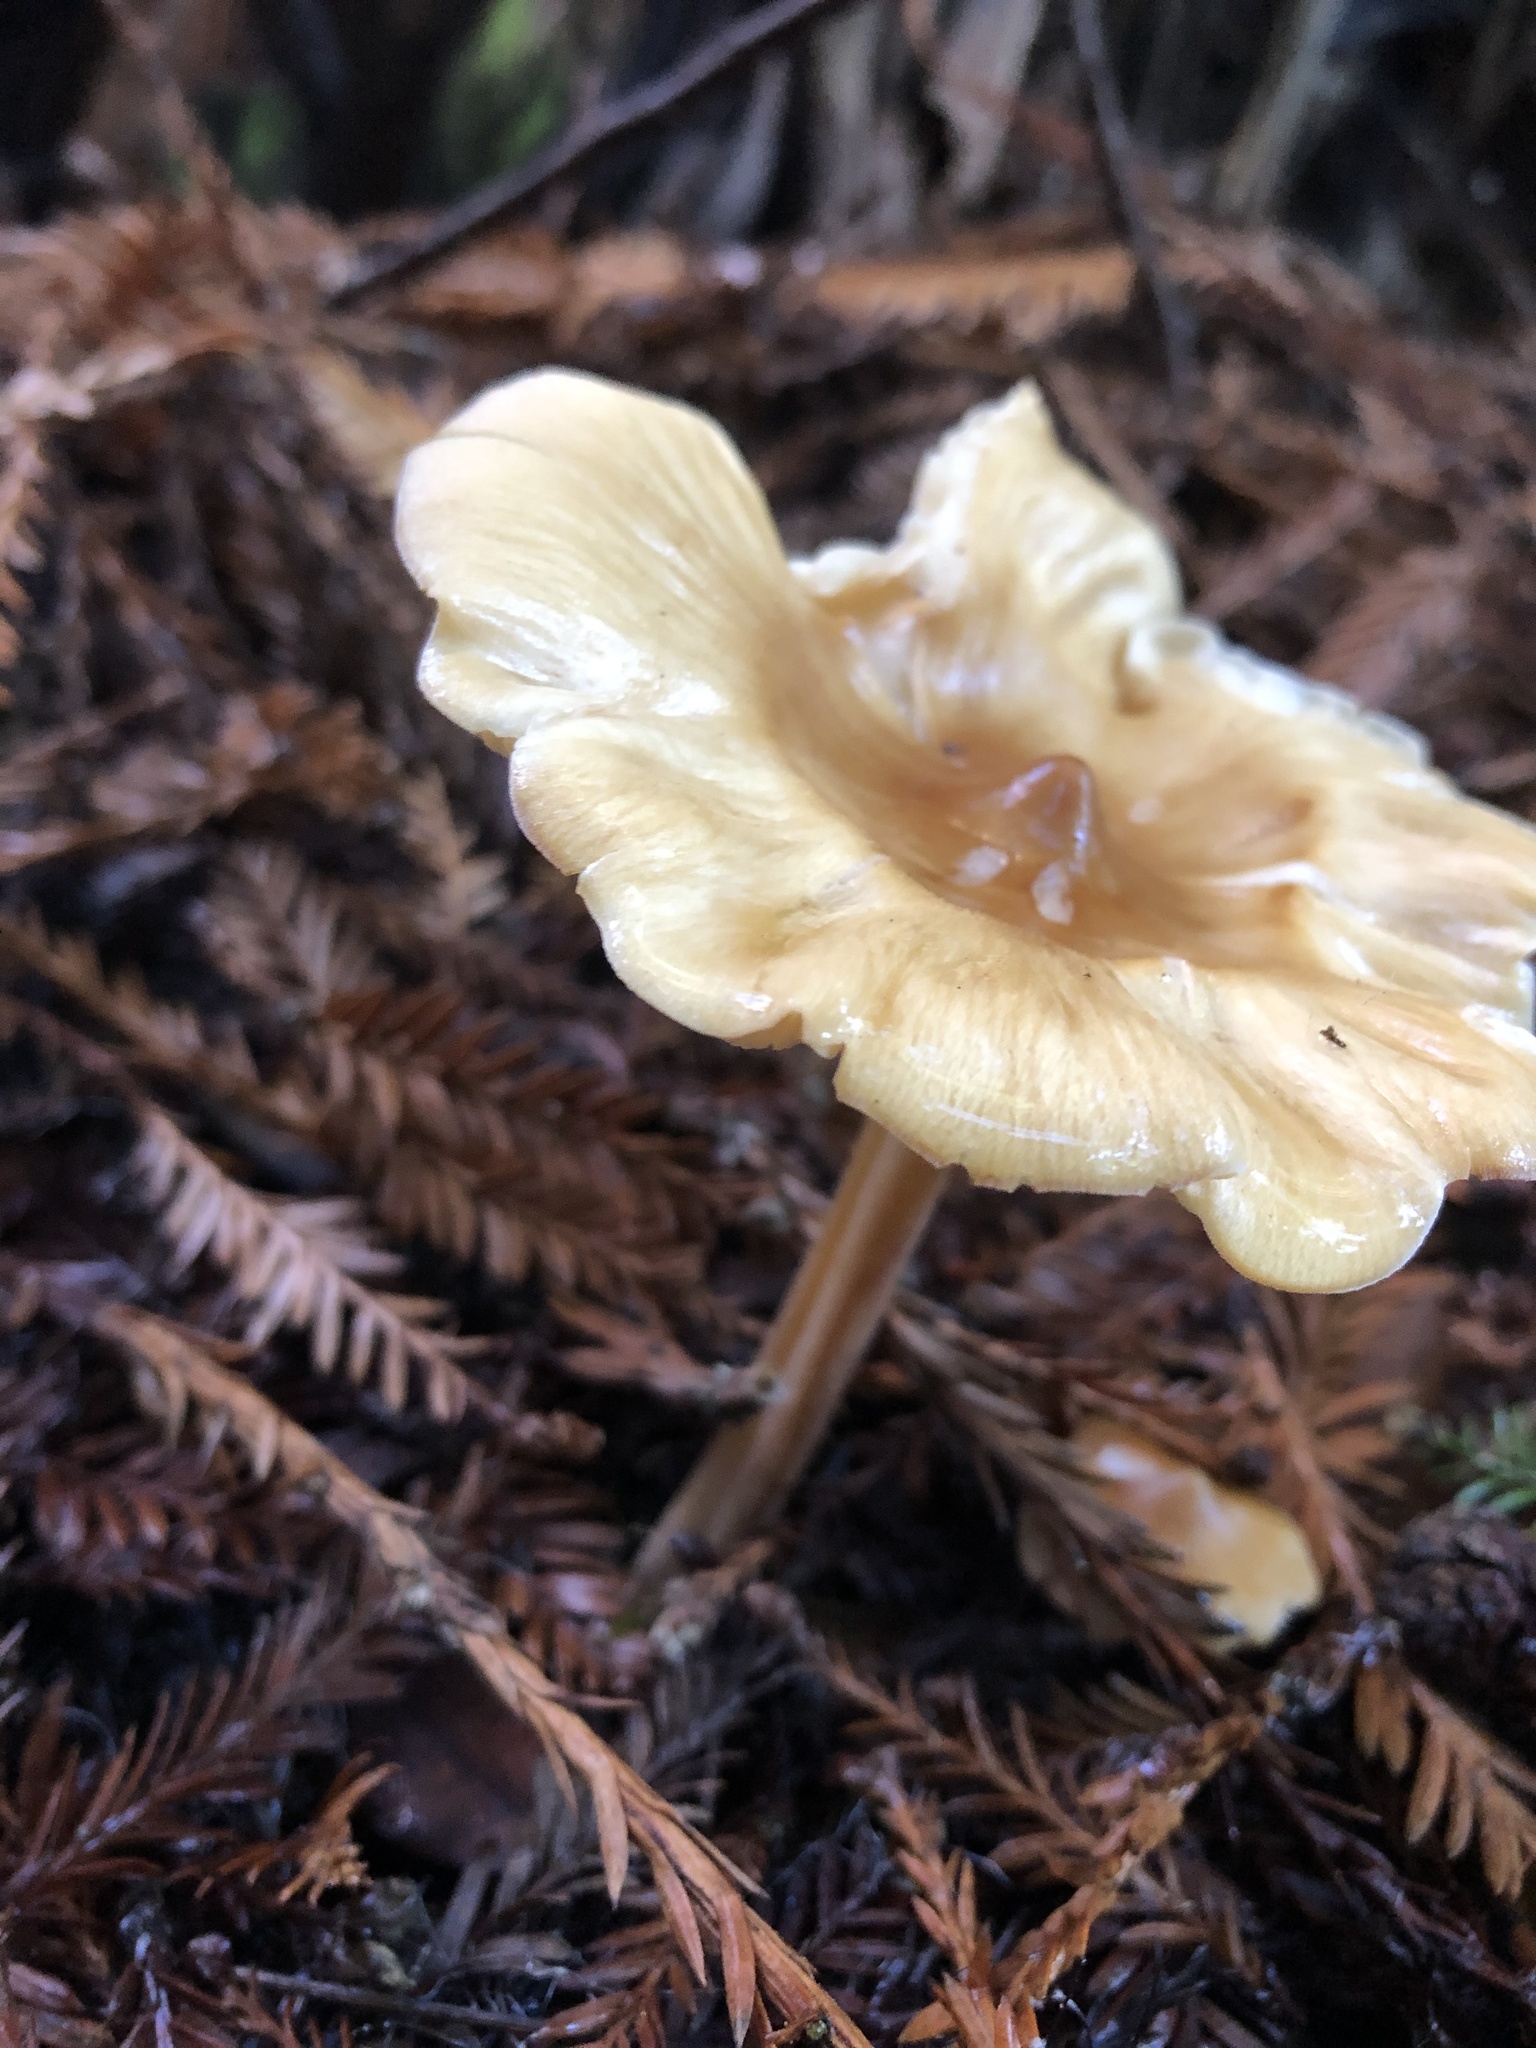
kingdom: Fungi
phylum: Basidiomycota
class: Agaricomycetes
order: Agaricales
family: Tricholomataceae
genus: Caulorhiza
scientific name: Caulorhiza umbonata
